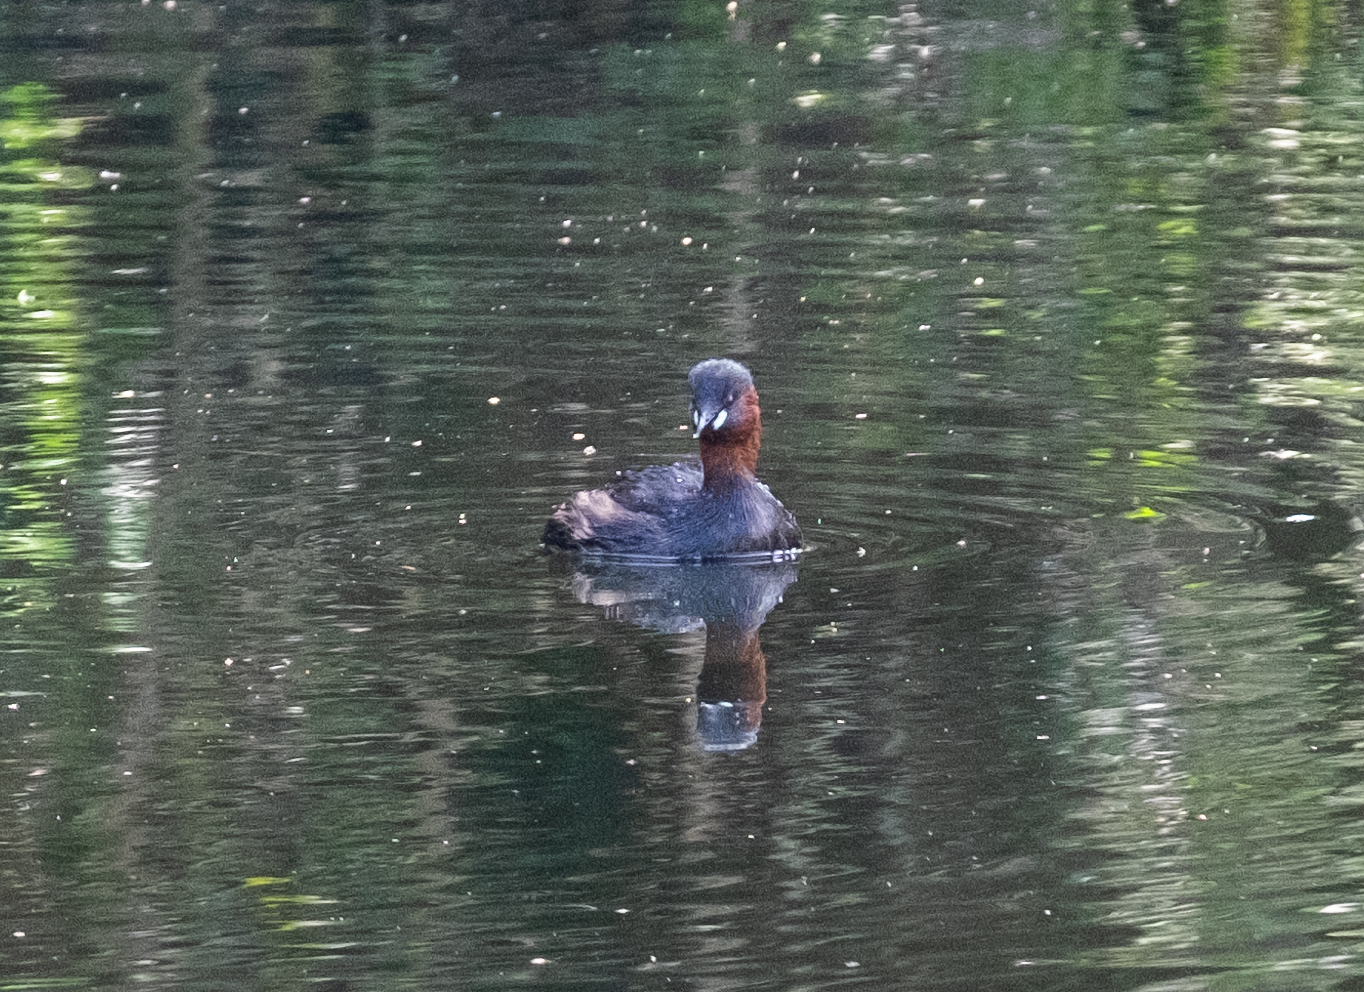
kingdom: Animalia
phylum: Chordata
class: Aves
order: Podicipediformes
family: Podicipedidae
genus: Tachybaptus
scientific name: Tachybaptus ruficollis
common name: Little grebe
